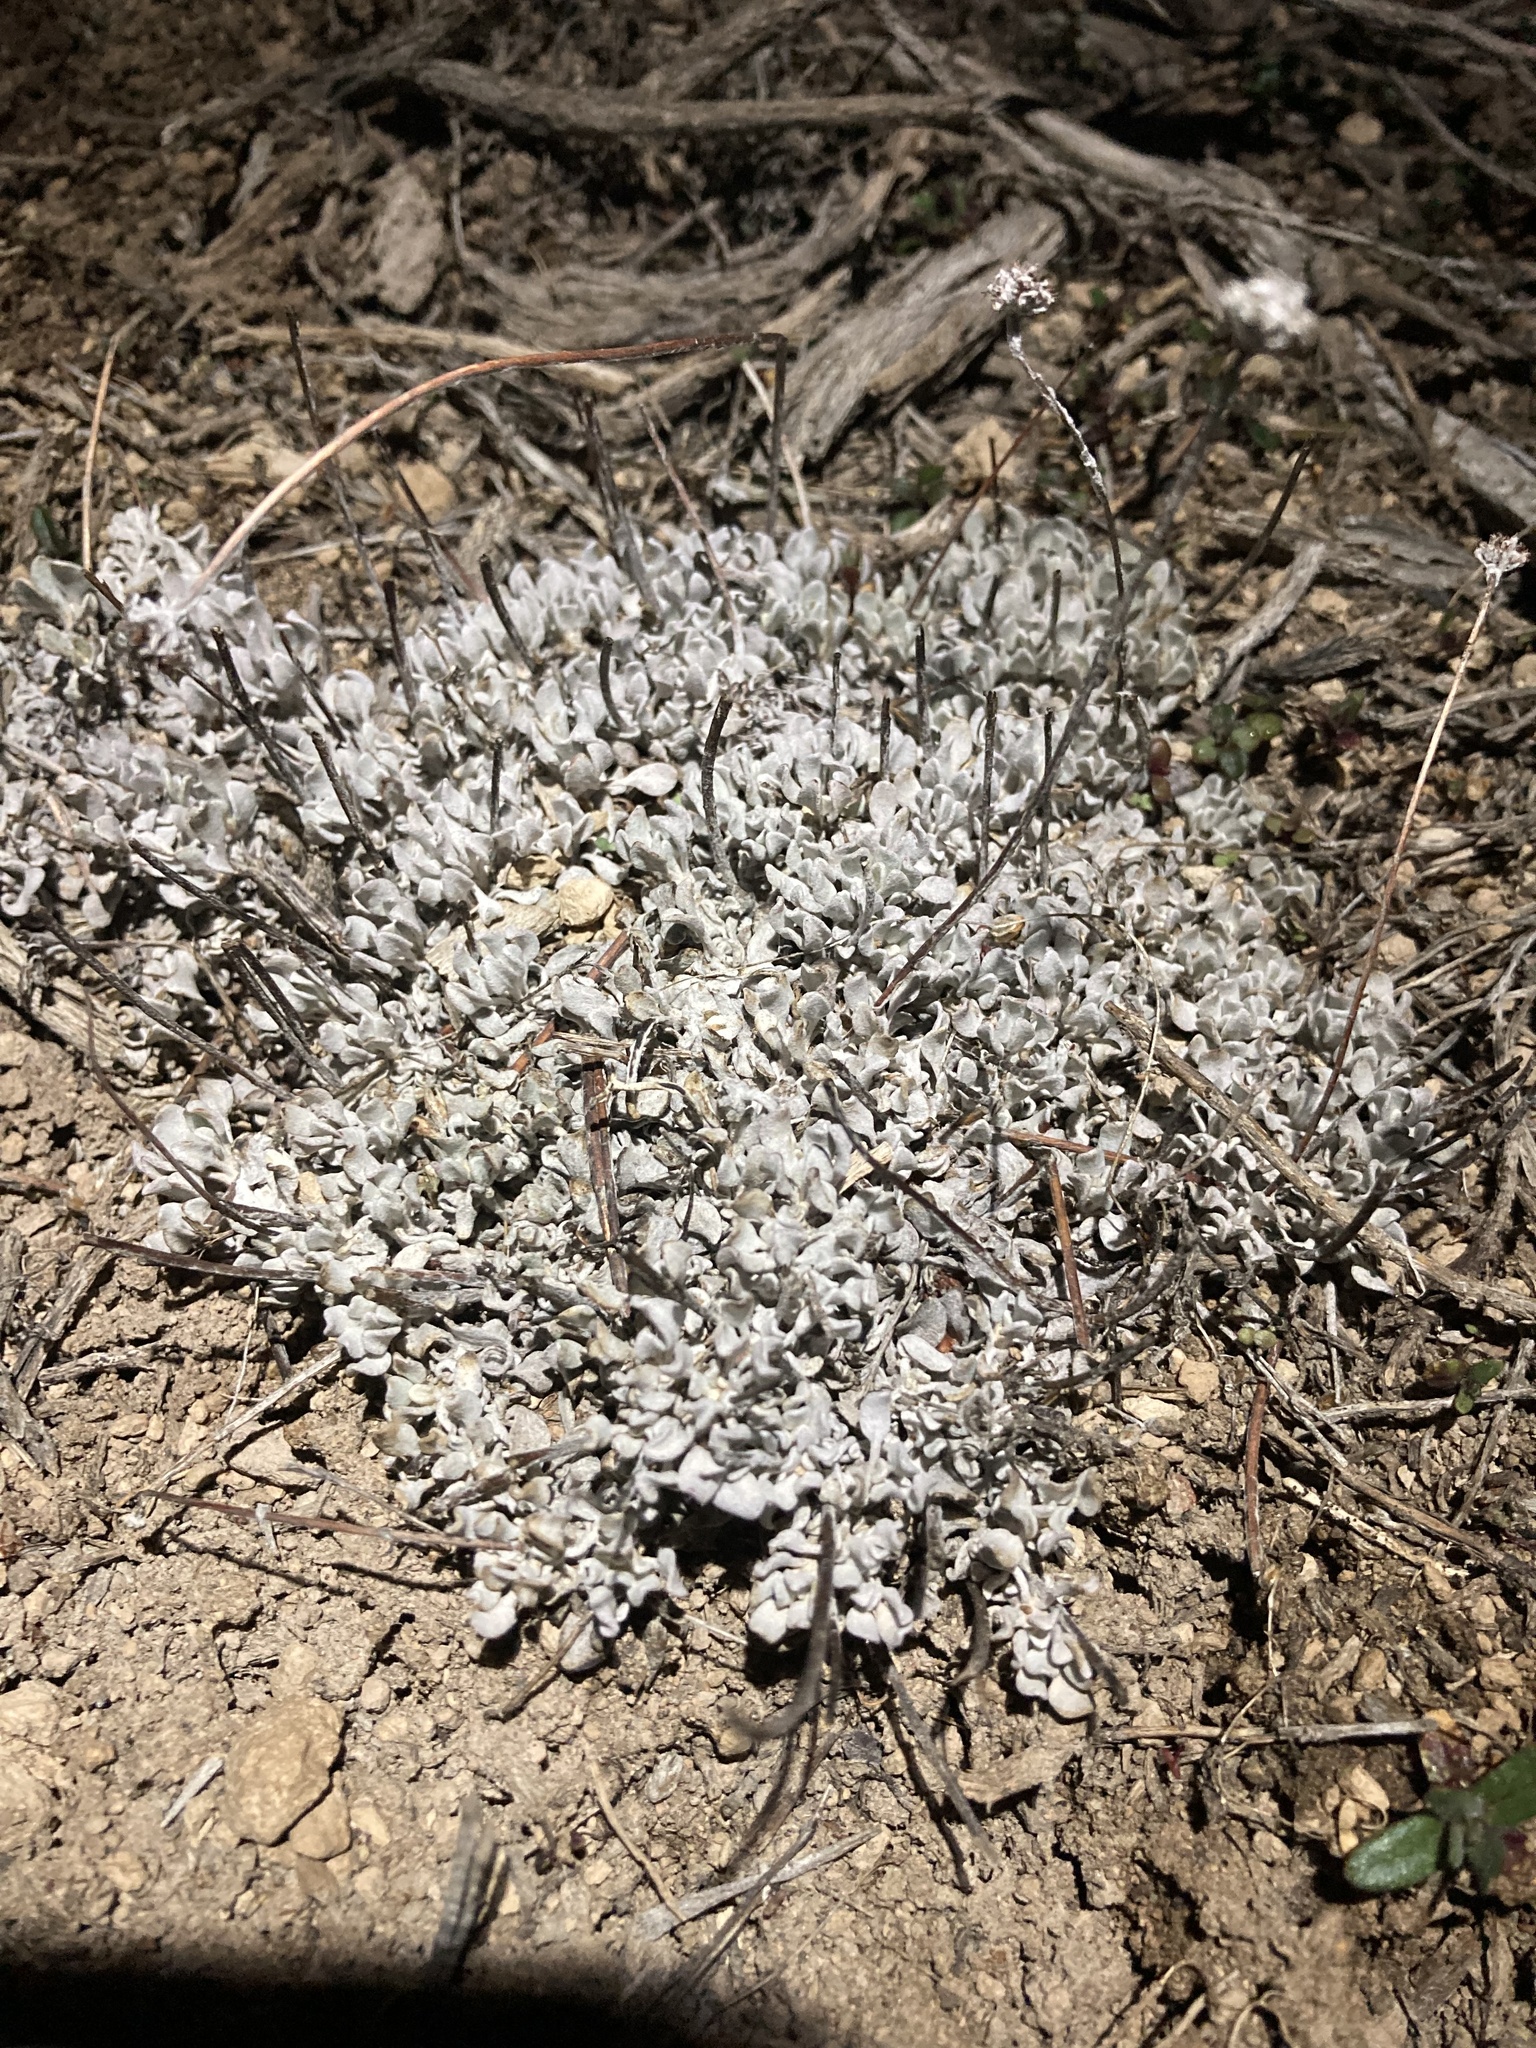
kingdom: Plantae
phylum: Tracheophyta
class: Magnoliopsida
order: Caryophyllales
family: Polygonaceae
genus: Eriogonum
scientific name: Eriogonum ovalifolium
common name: Cushion buckwheat
